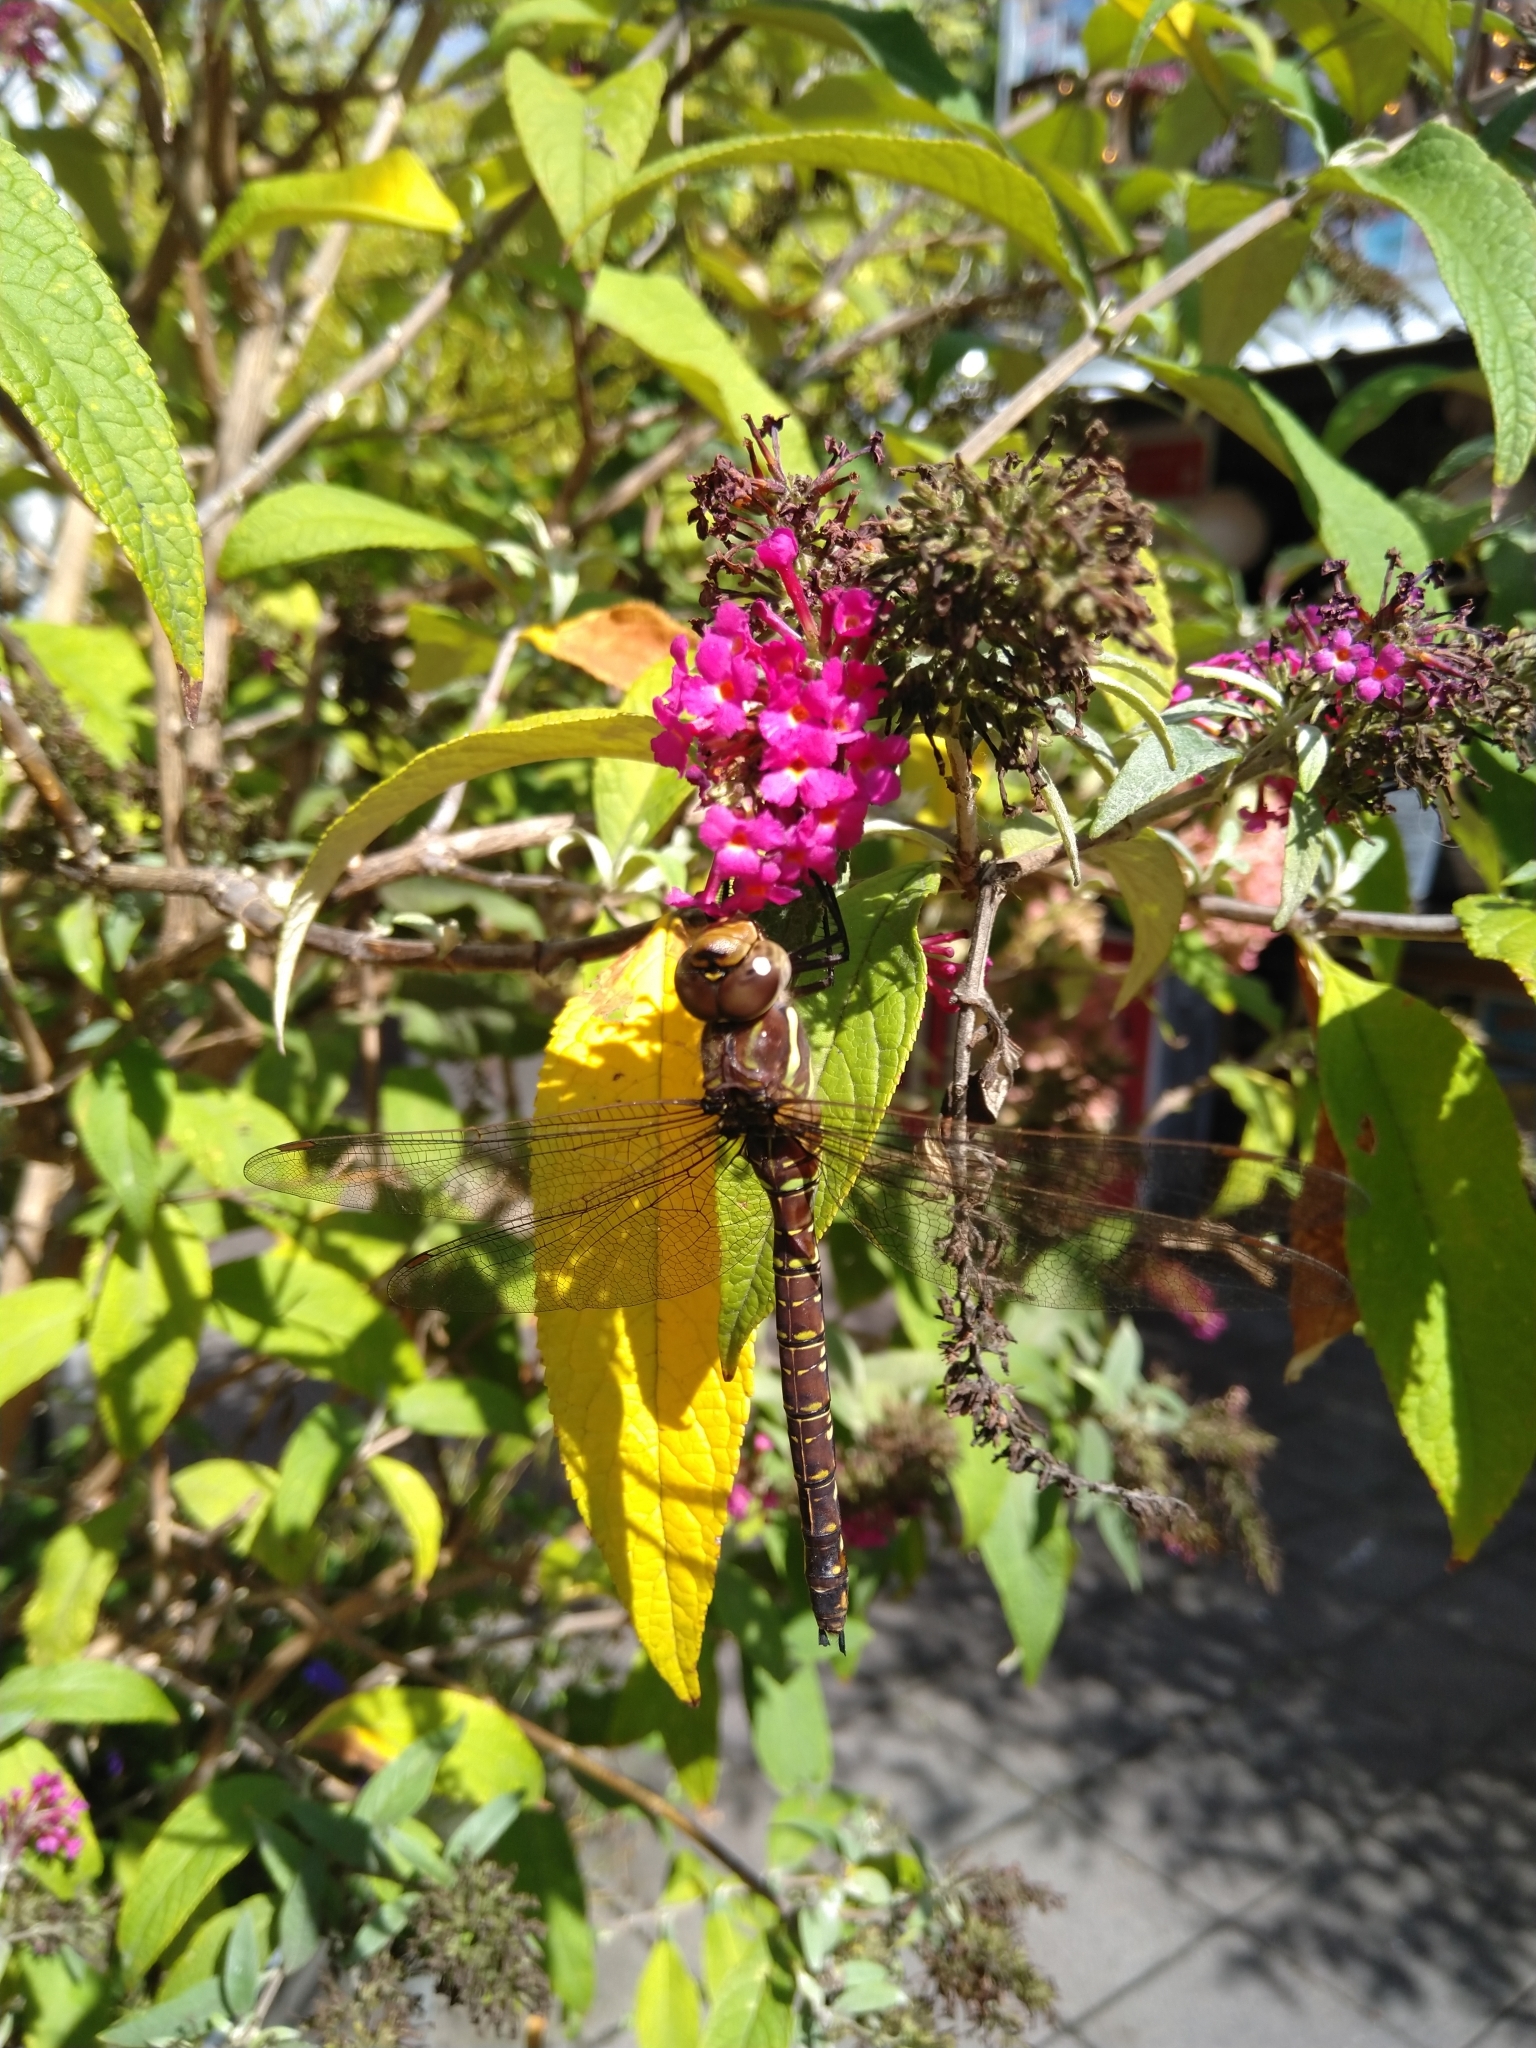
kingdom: Animalia
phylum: Arthropoda
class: Insecta
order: Odonata
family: Aeshnidae
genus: Aeshna
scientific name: Aeshna umbrosa
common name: Shadow darner
